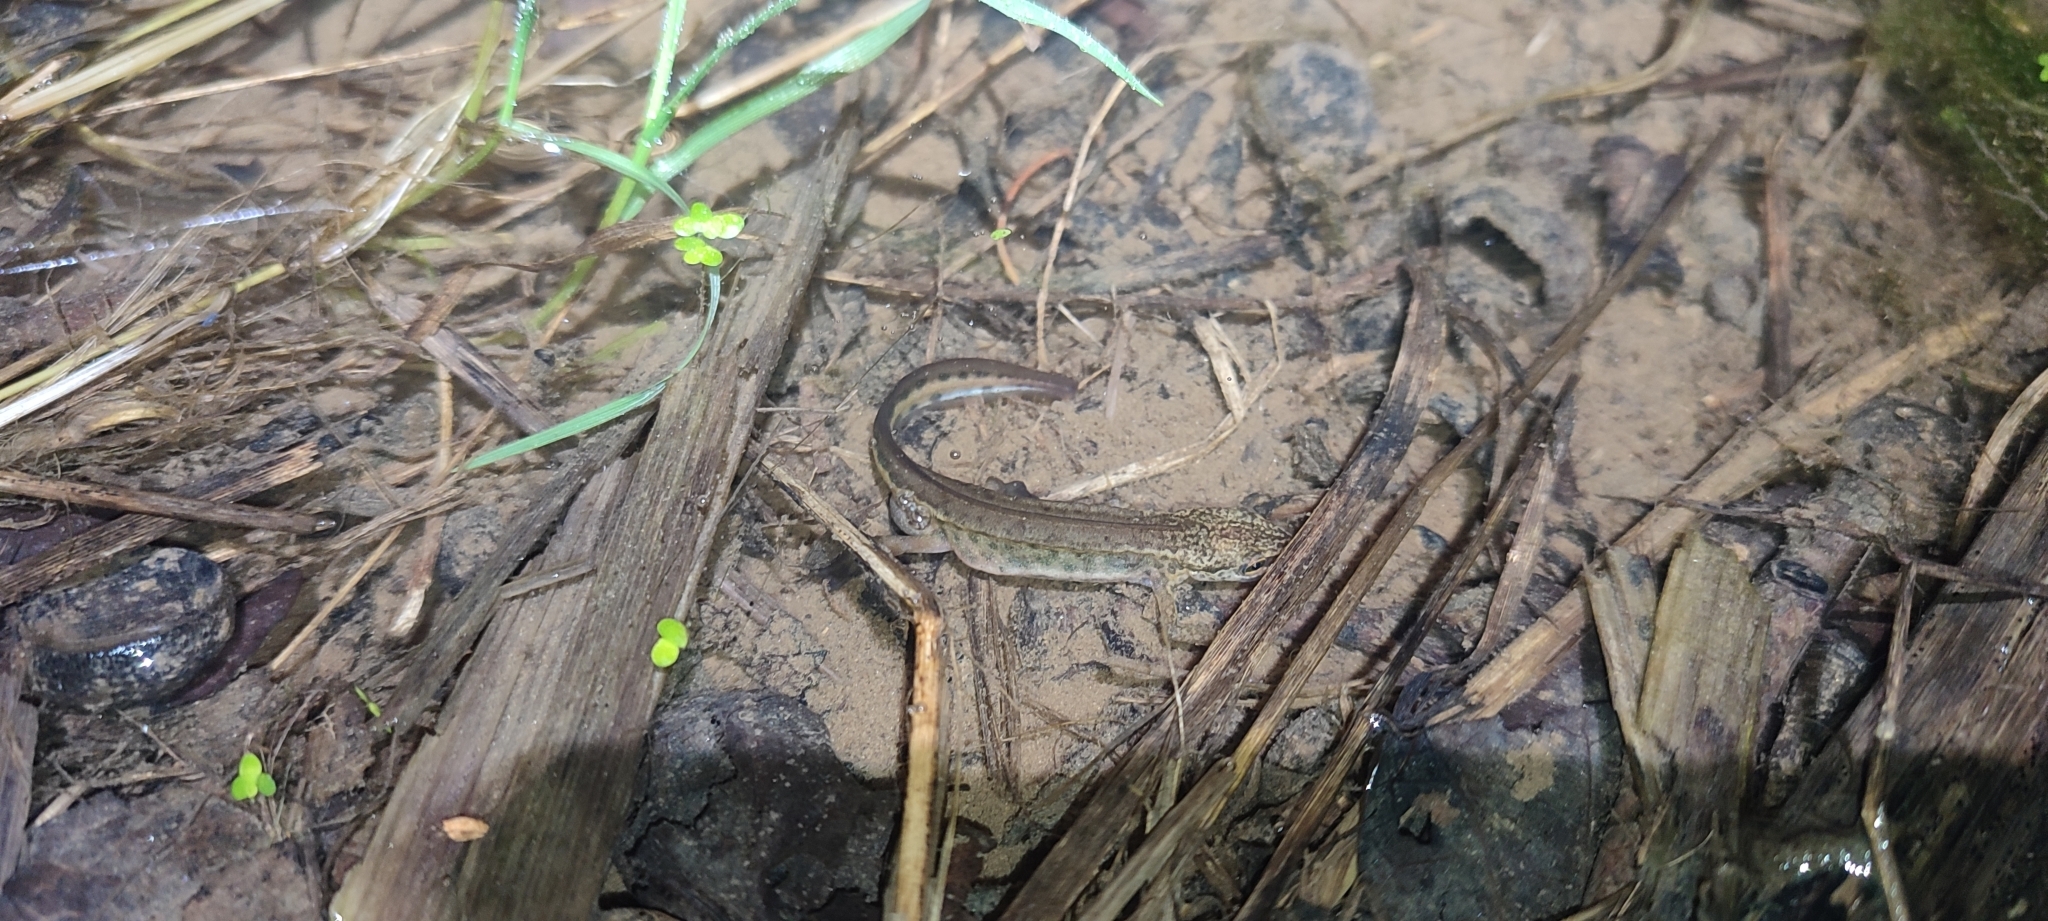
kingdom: Animalia
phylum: Chordata
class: Amphibia
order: Caudata
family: Salamandridae
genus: Lissotriton
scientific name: Lissotriton helveticus
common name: Palmate newt
